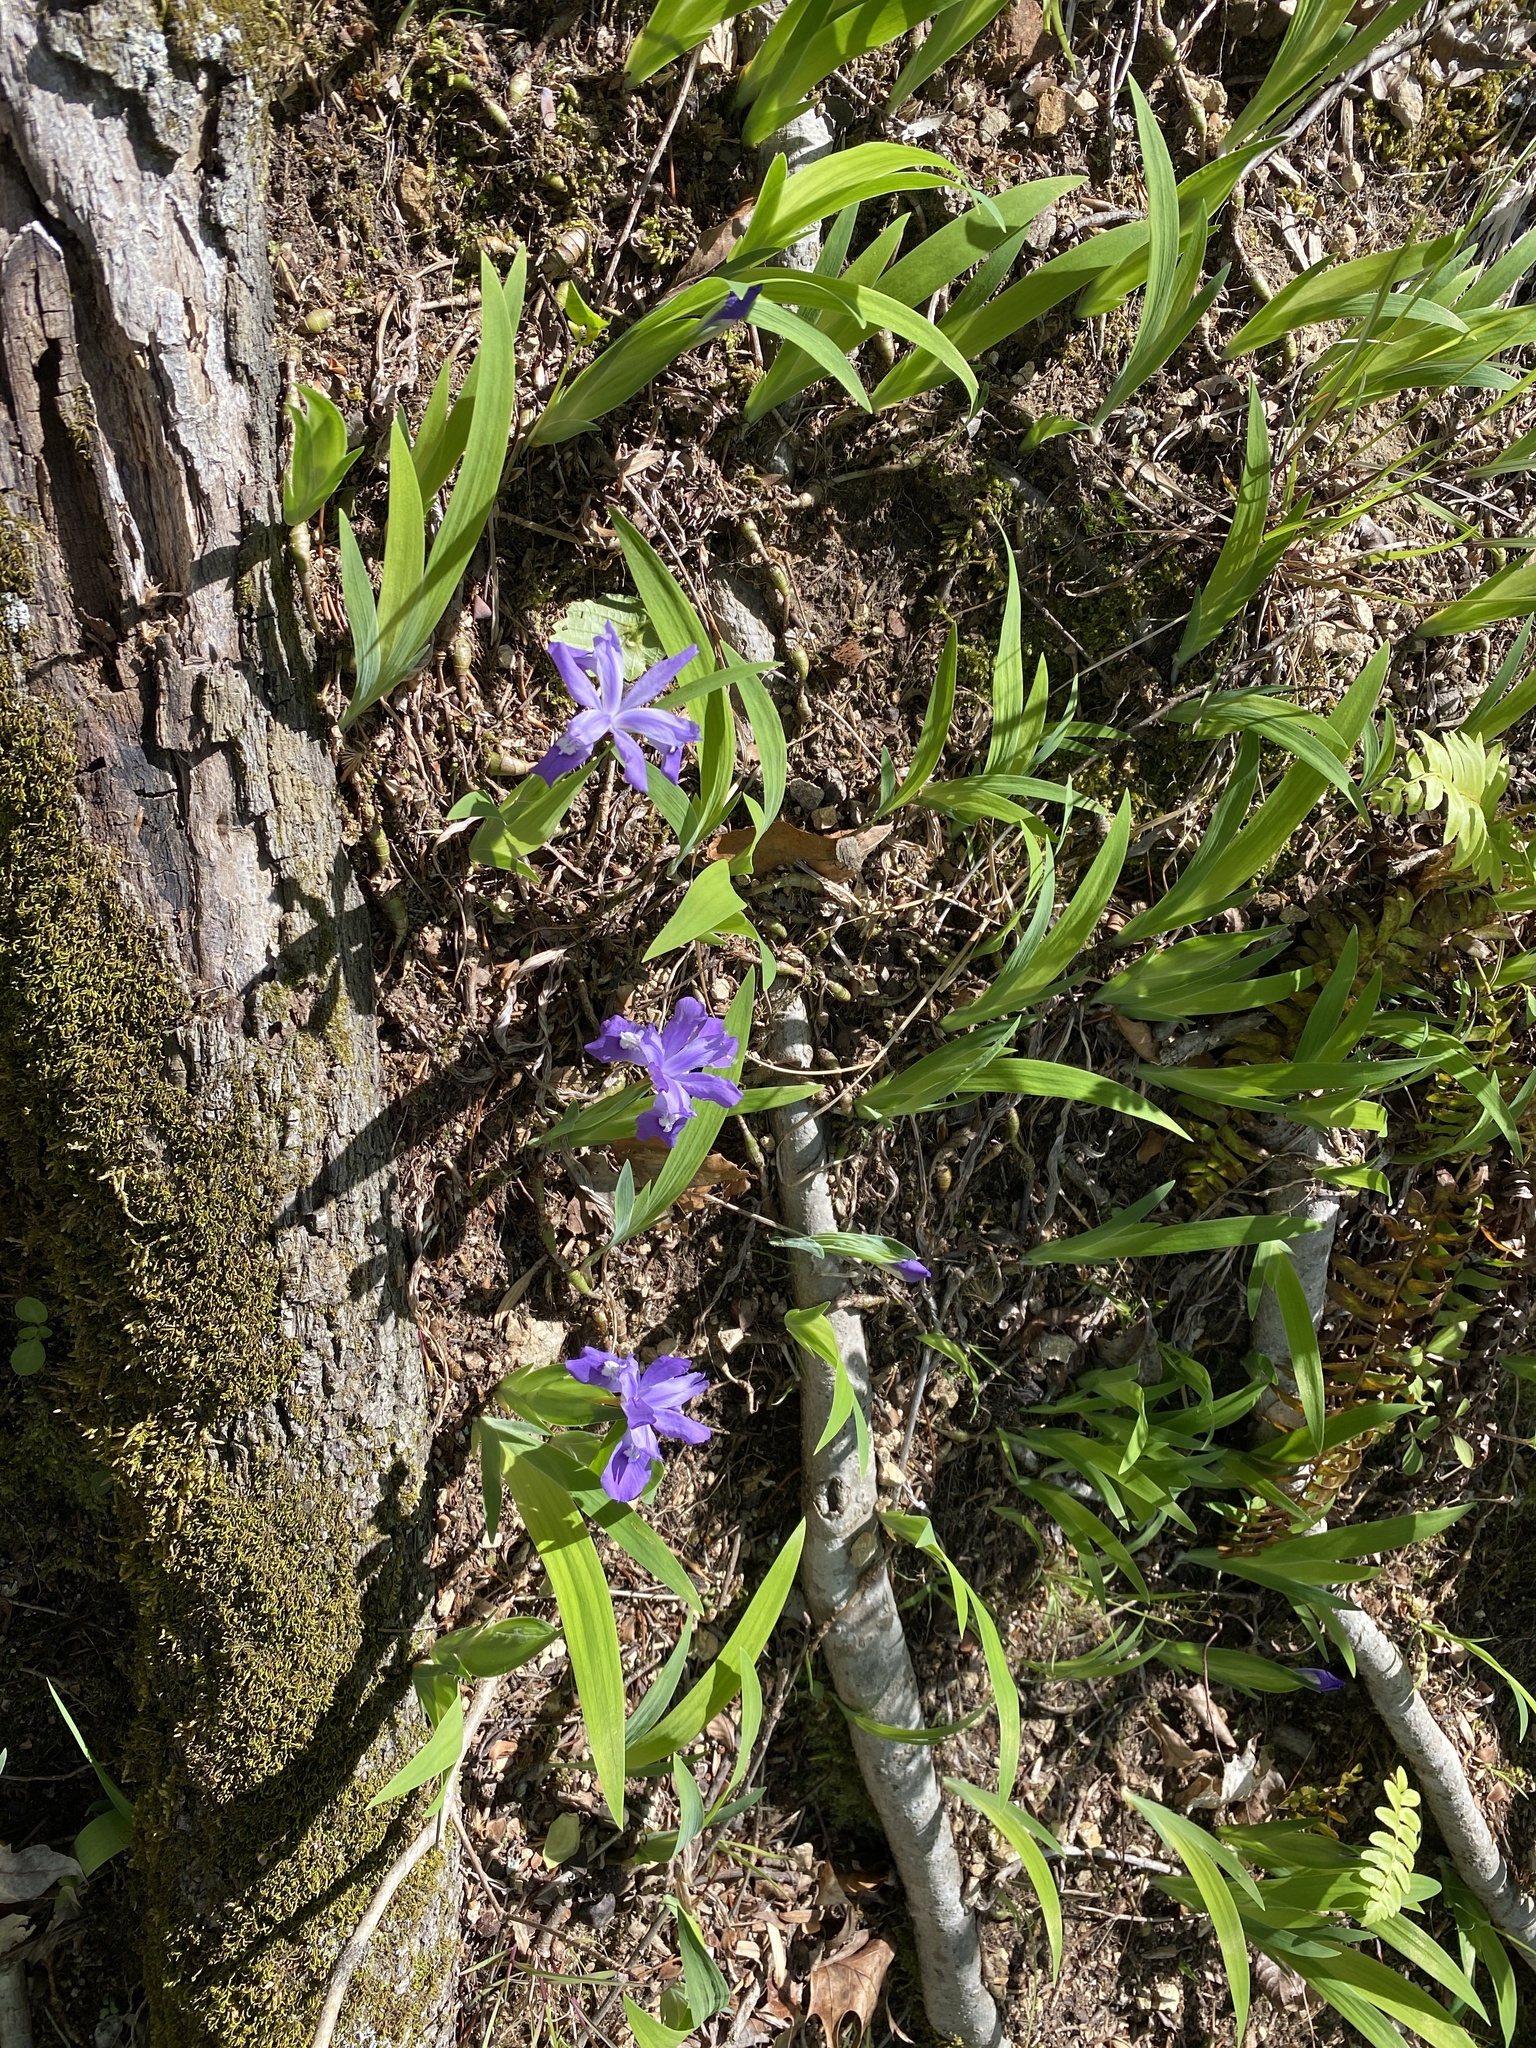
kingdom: Plantae
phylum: Tracheophyta
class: Liliopsida
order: Asparagales
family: Iridaceae
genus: Iris
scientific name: Iris cristata
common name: Crested iris
